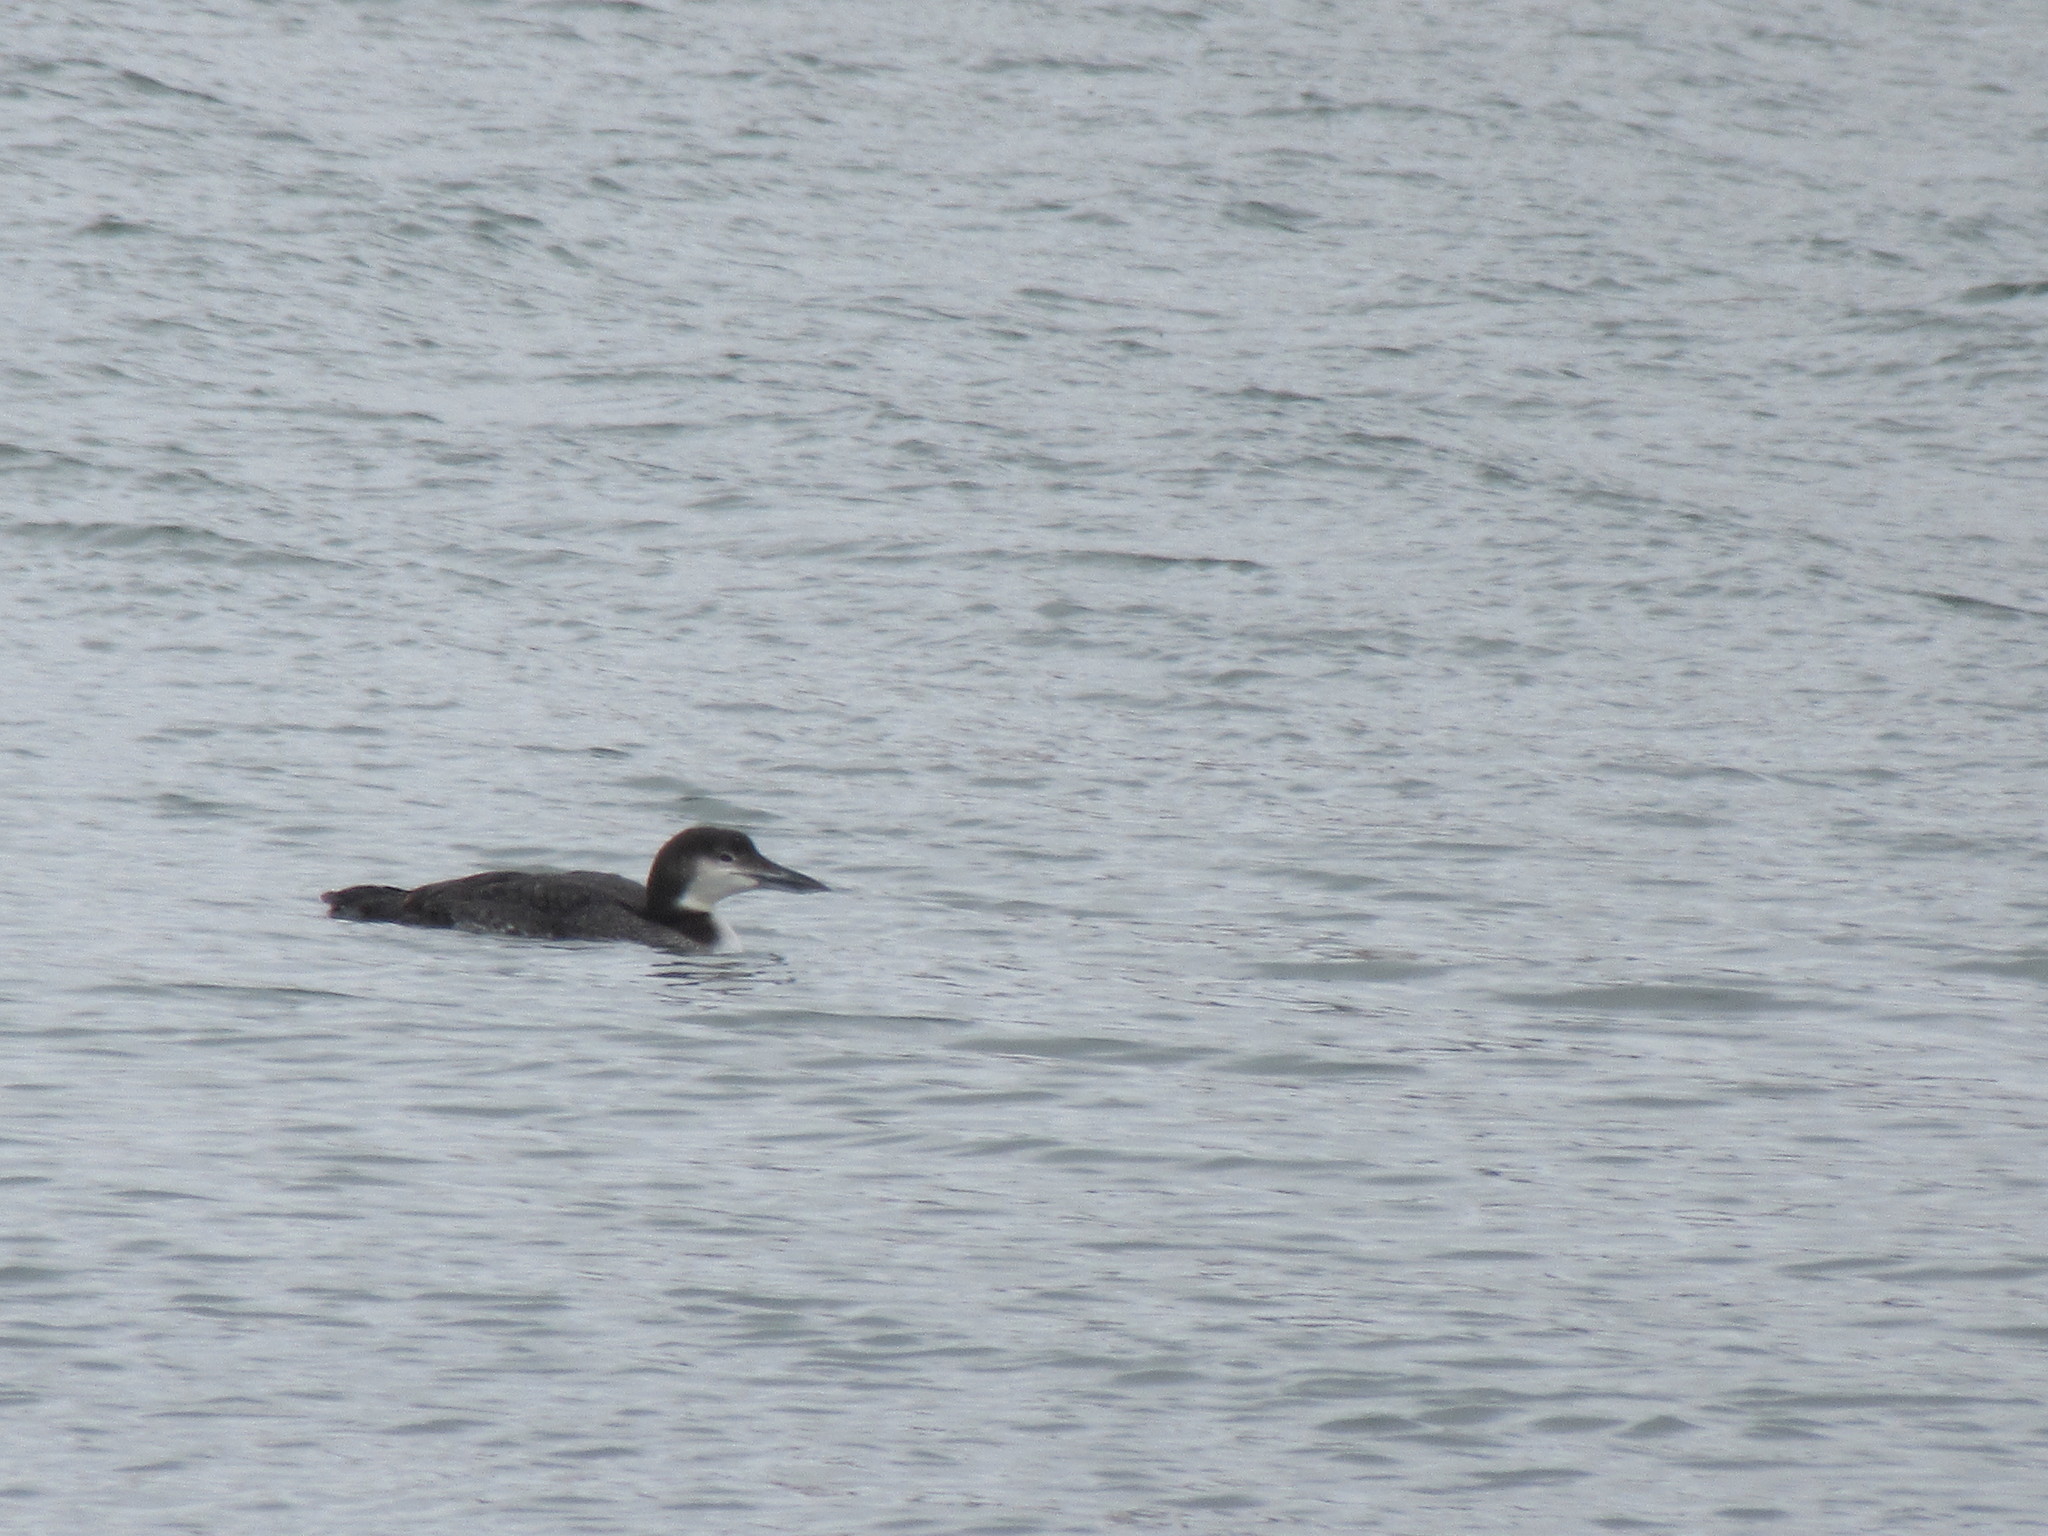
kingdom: Animalia
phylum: Chordata
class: Aves
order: Gaviiformes
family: Gaviidae
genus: Gavia
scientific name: Gavia immer
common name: Common loon
